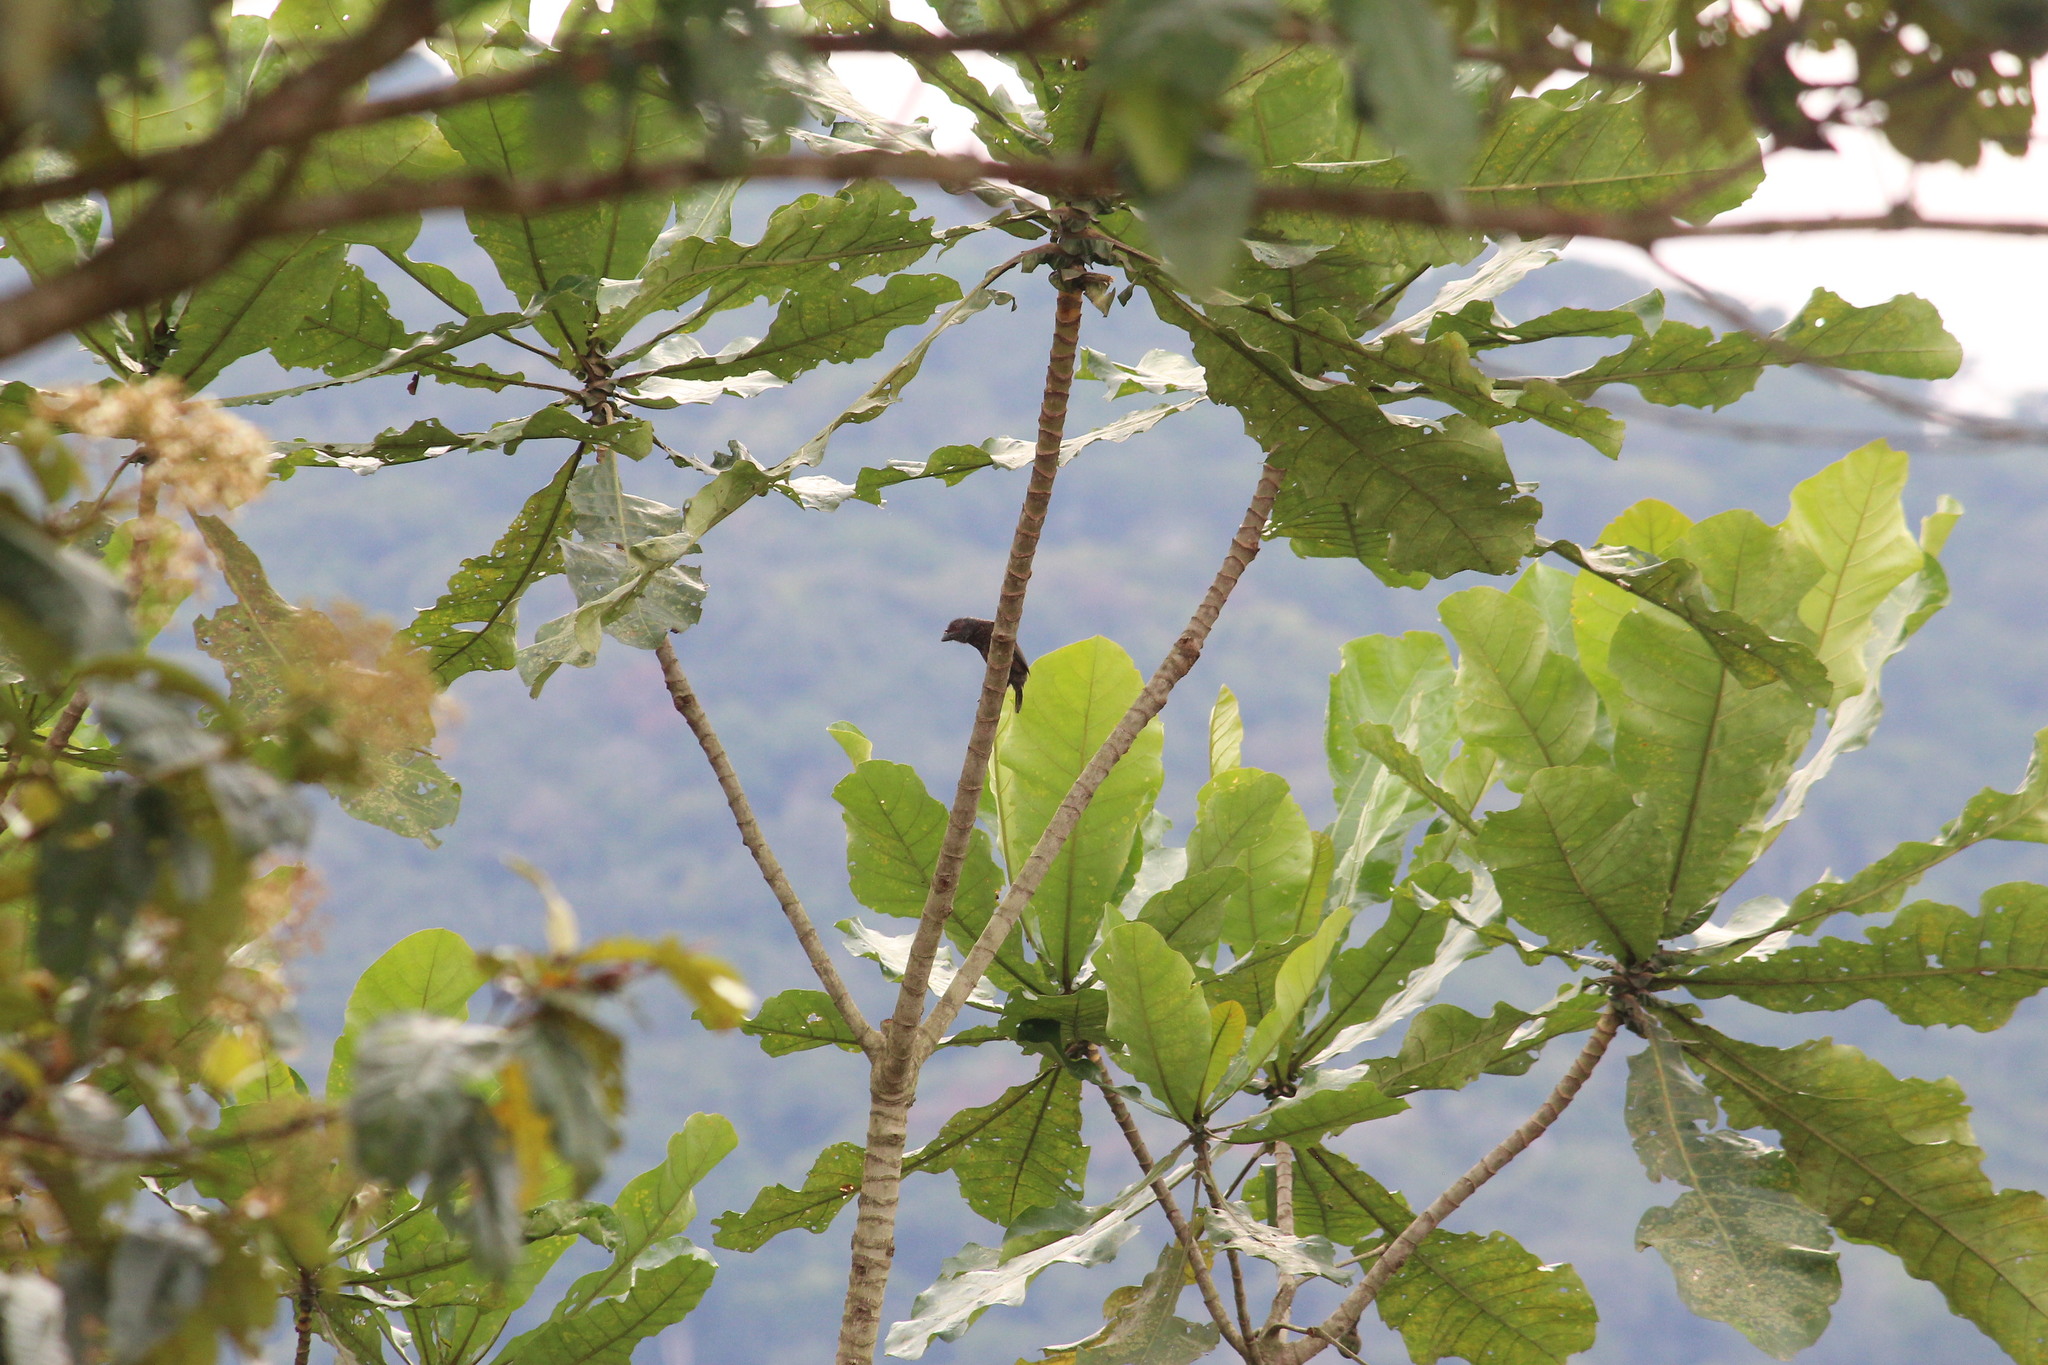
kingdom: Animalia
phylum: Chordata
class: Aves
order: Piciformes
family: Lybiidae
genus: Gymnobucco
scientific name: Gymnobucco bonapartei
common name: Grey-throated barbet
